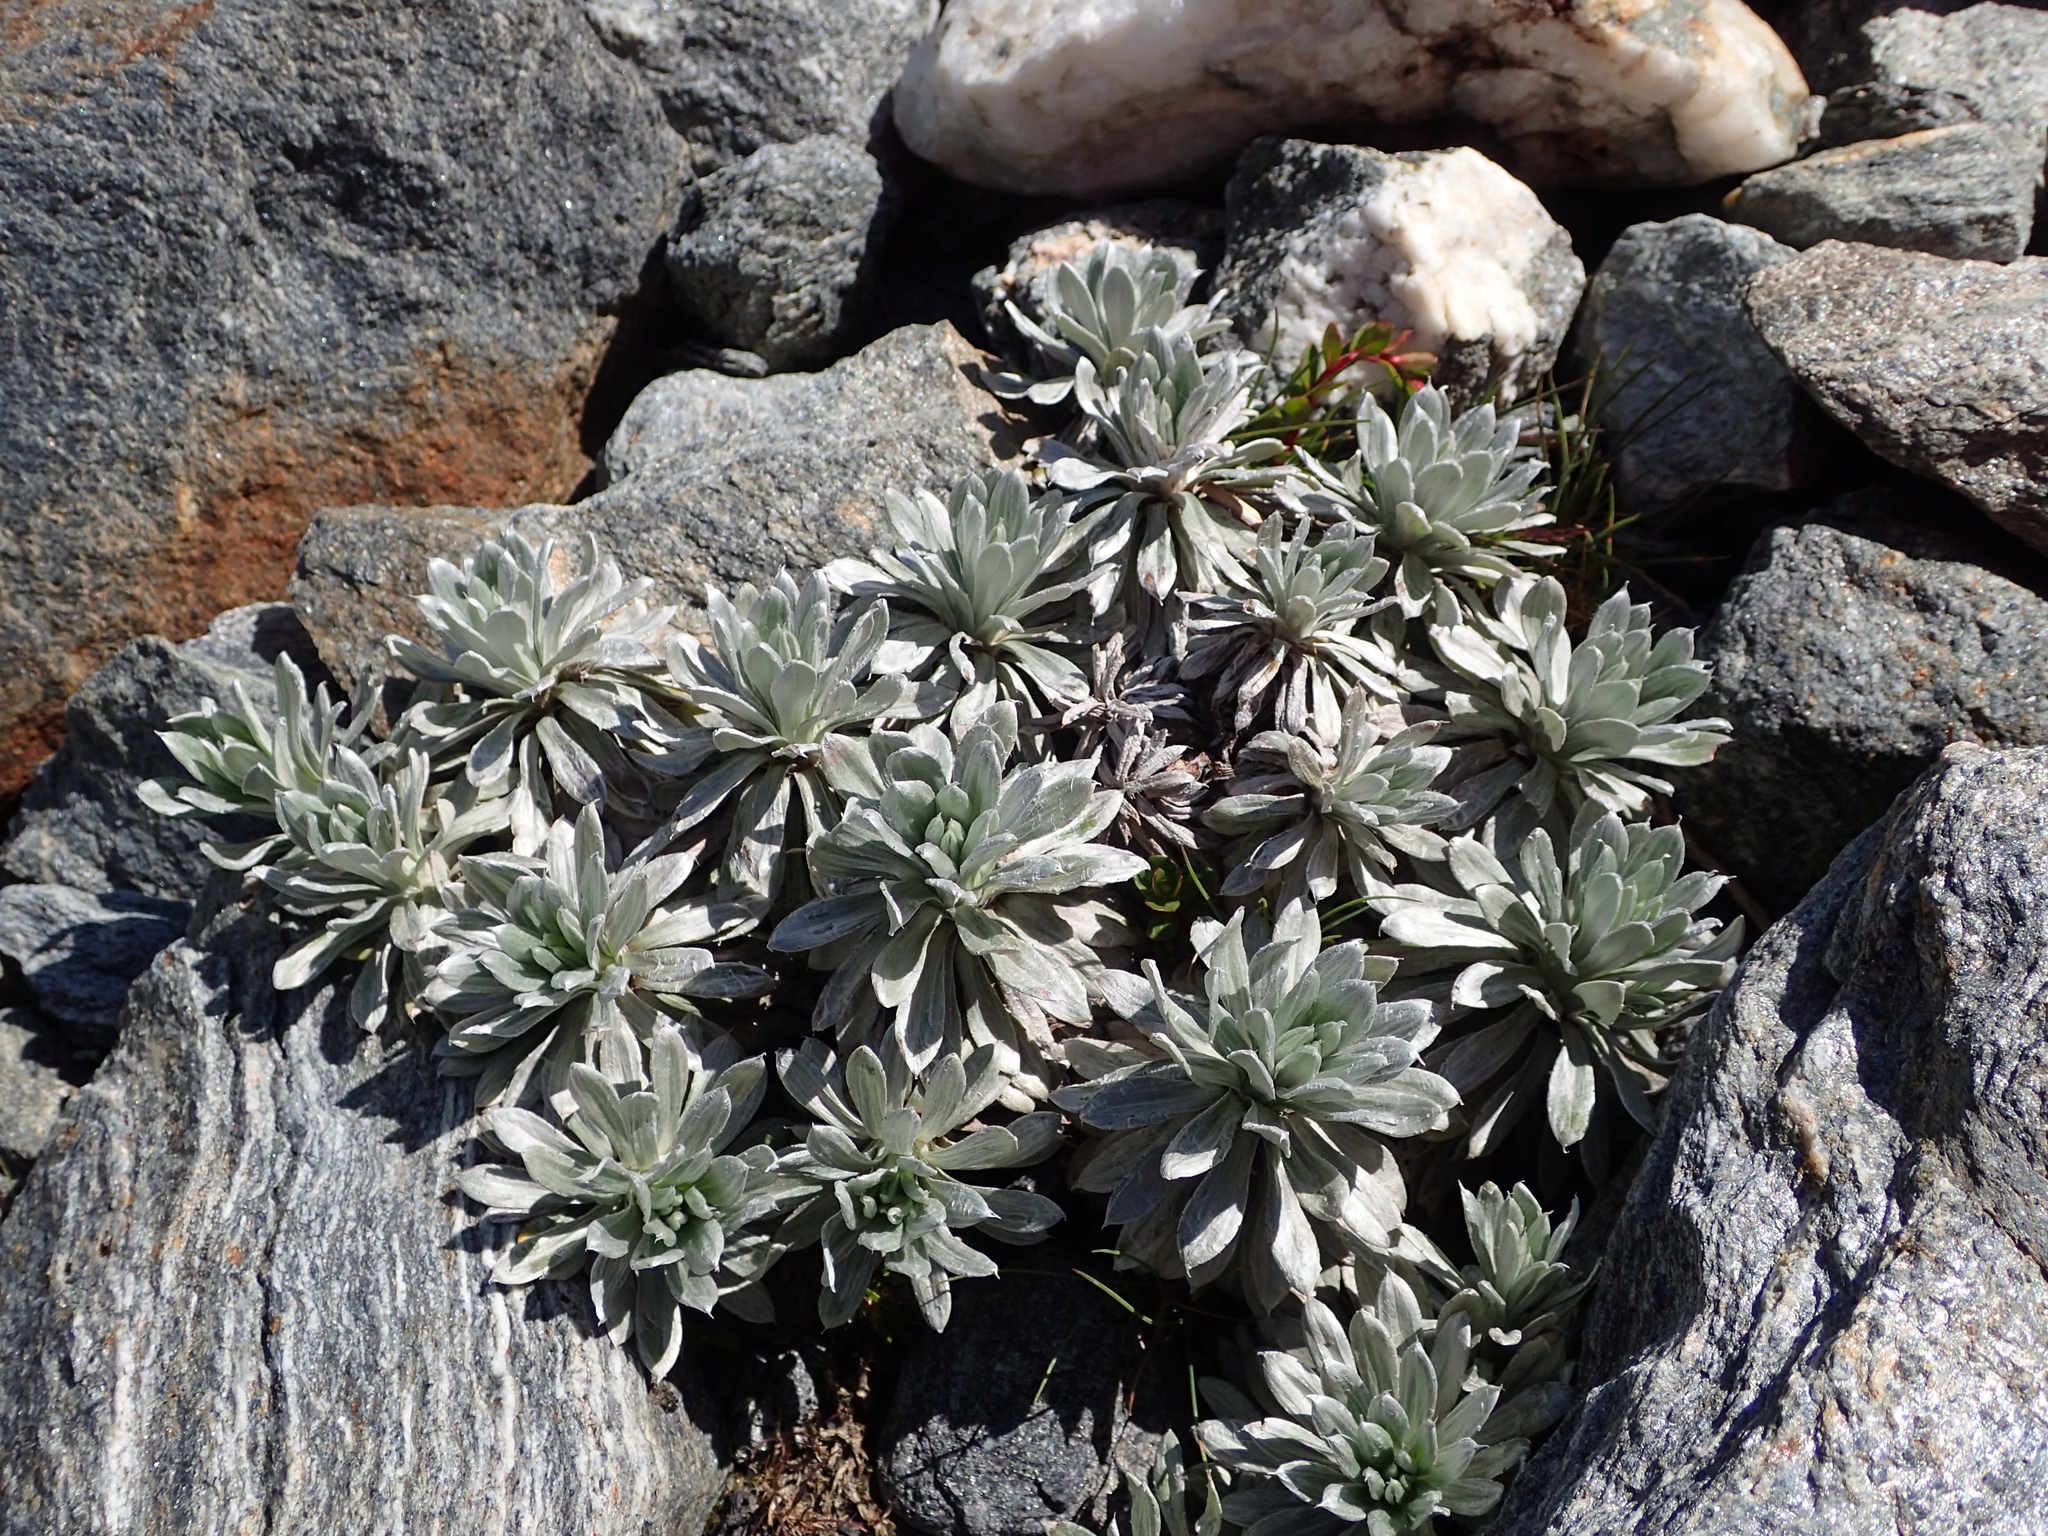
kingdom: Plantae
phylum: Tracheophyta
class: Magnoliopsida
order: Asterales
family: Asteraceae
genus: Celmisia
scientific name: Celmisia hectorii
